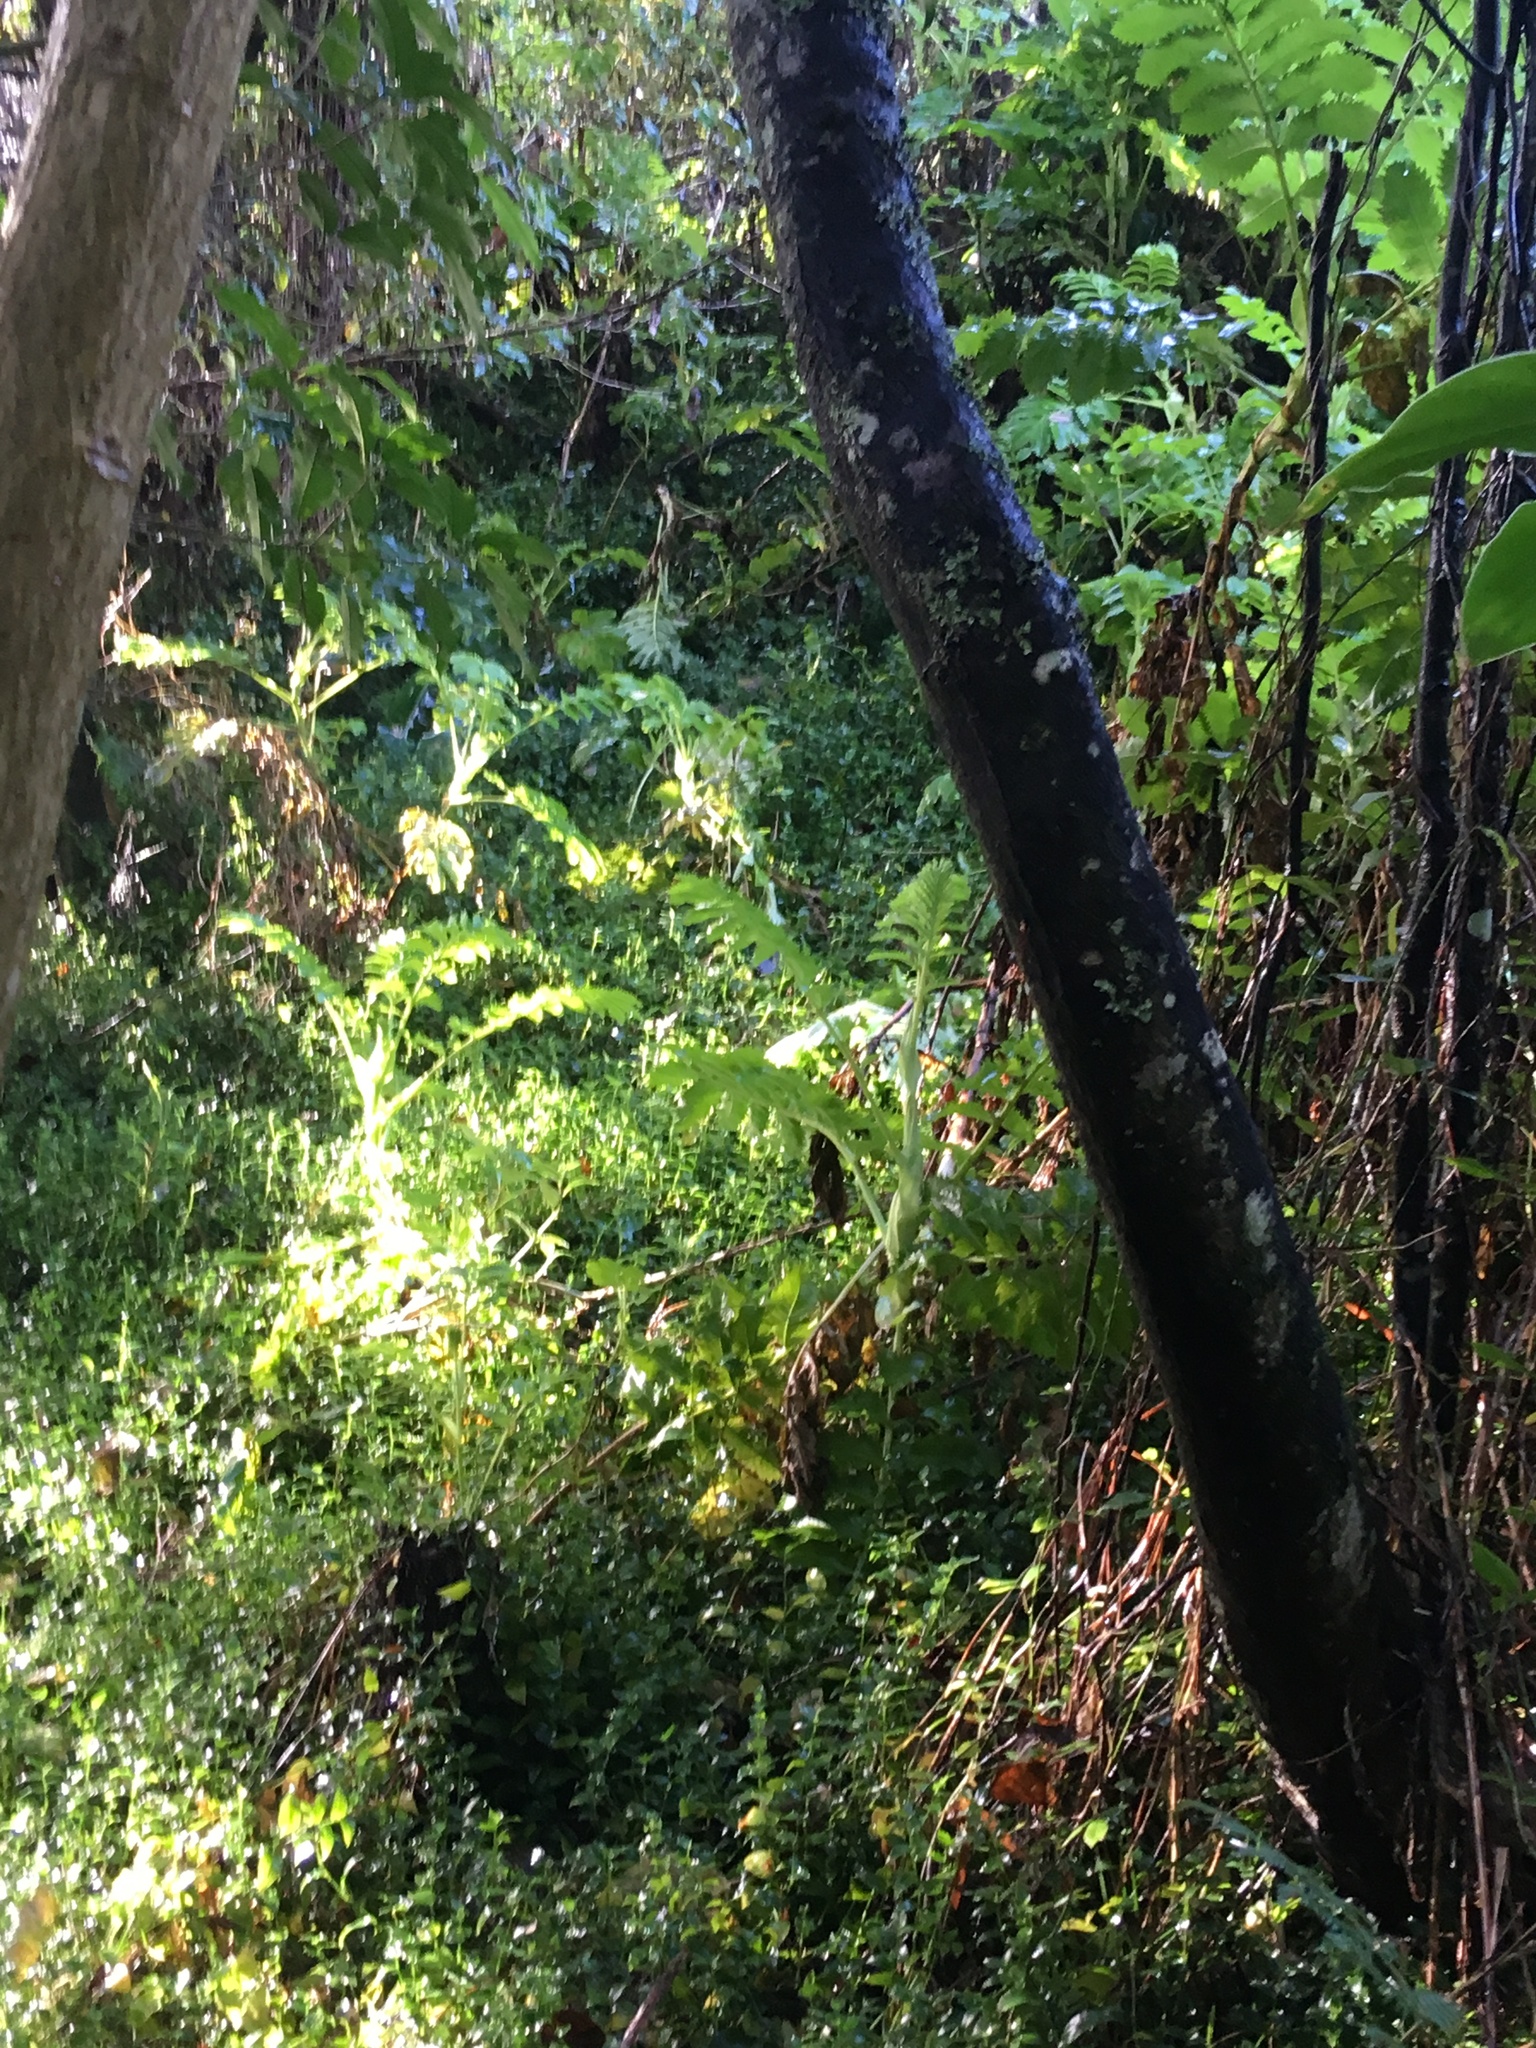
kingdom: Plantae
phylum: Tracheophyta
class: Magnoliopsida
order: Geraniales
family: Melianthaceae
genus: Melianthus
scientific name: Melianthus major
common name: Honey-flower
